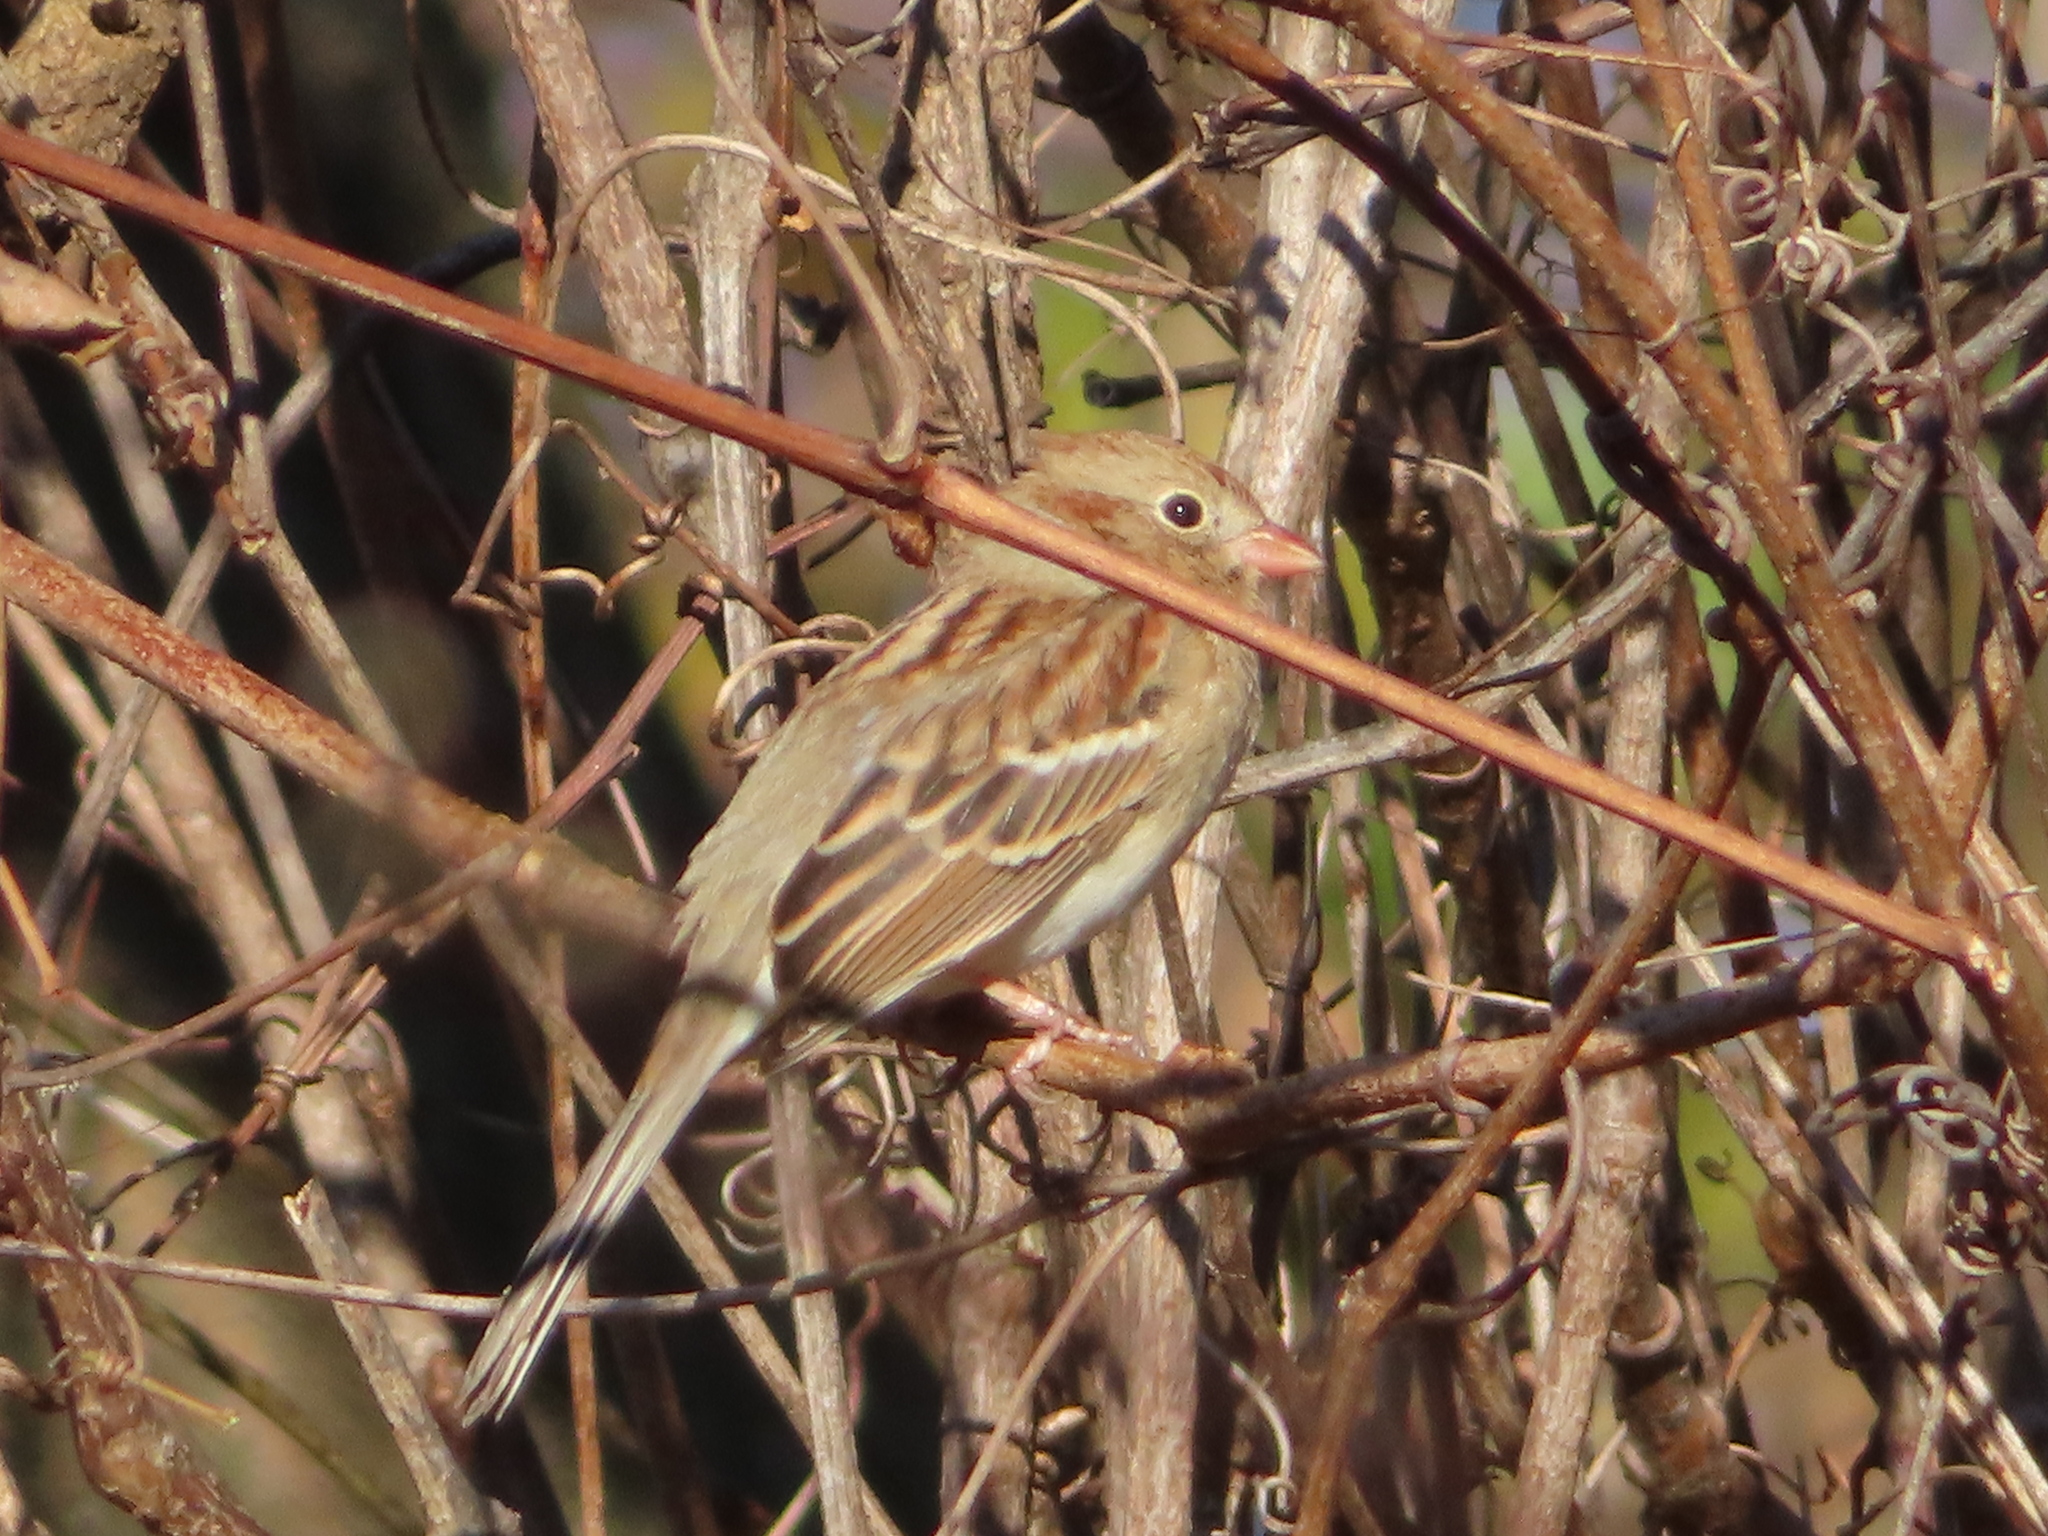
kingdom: Animalia
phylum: Chordata
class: Aves
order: Passeriformes
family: Passerellidae
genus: Spizella
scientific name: Spizella pusilla
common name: Field sparrow
